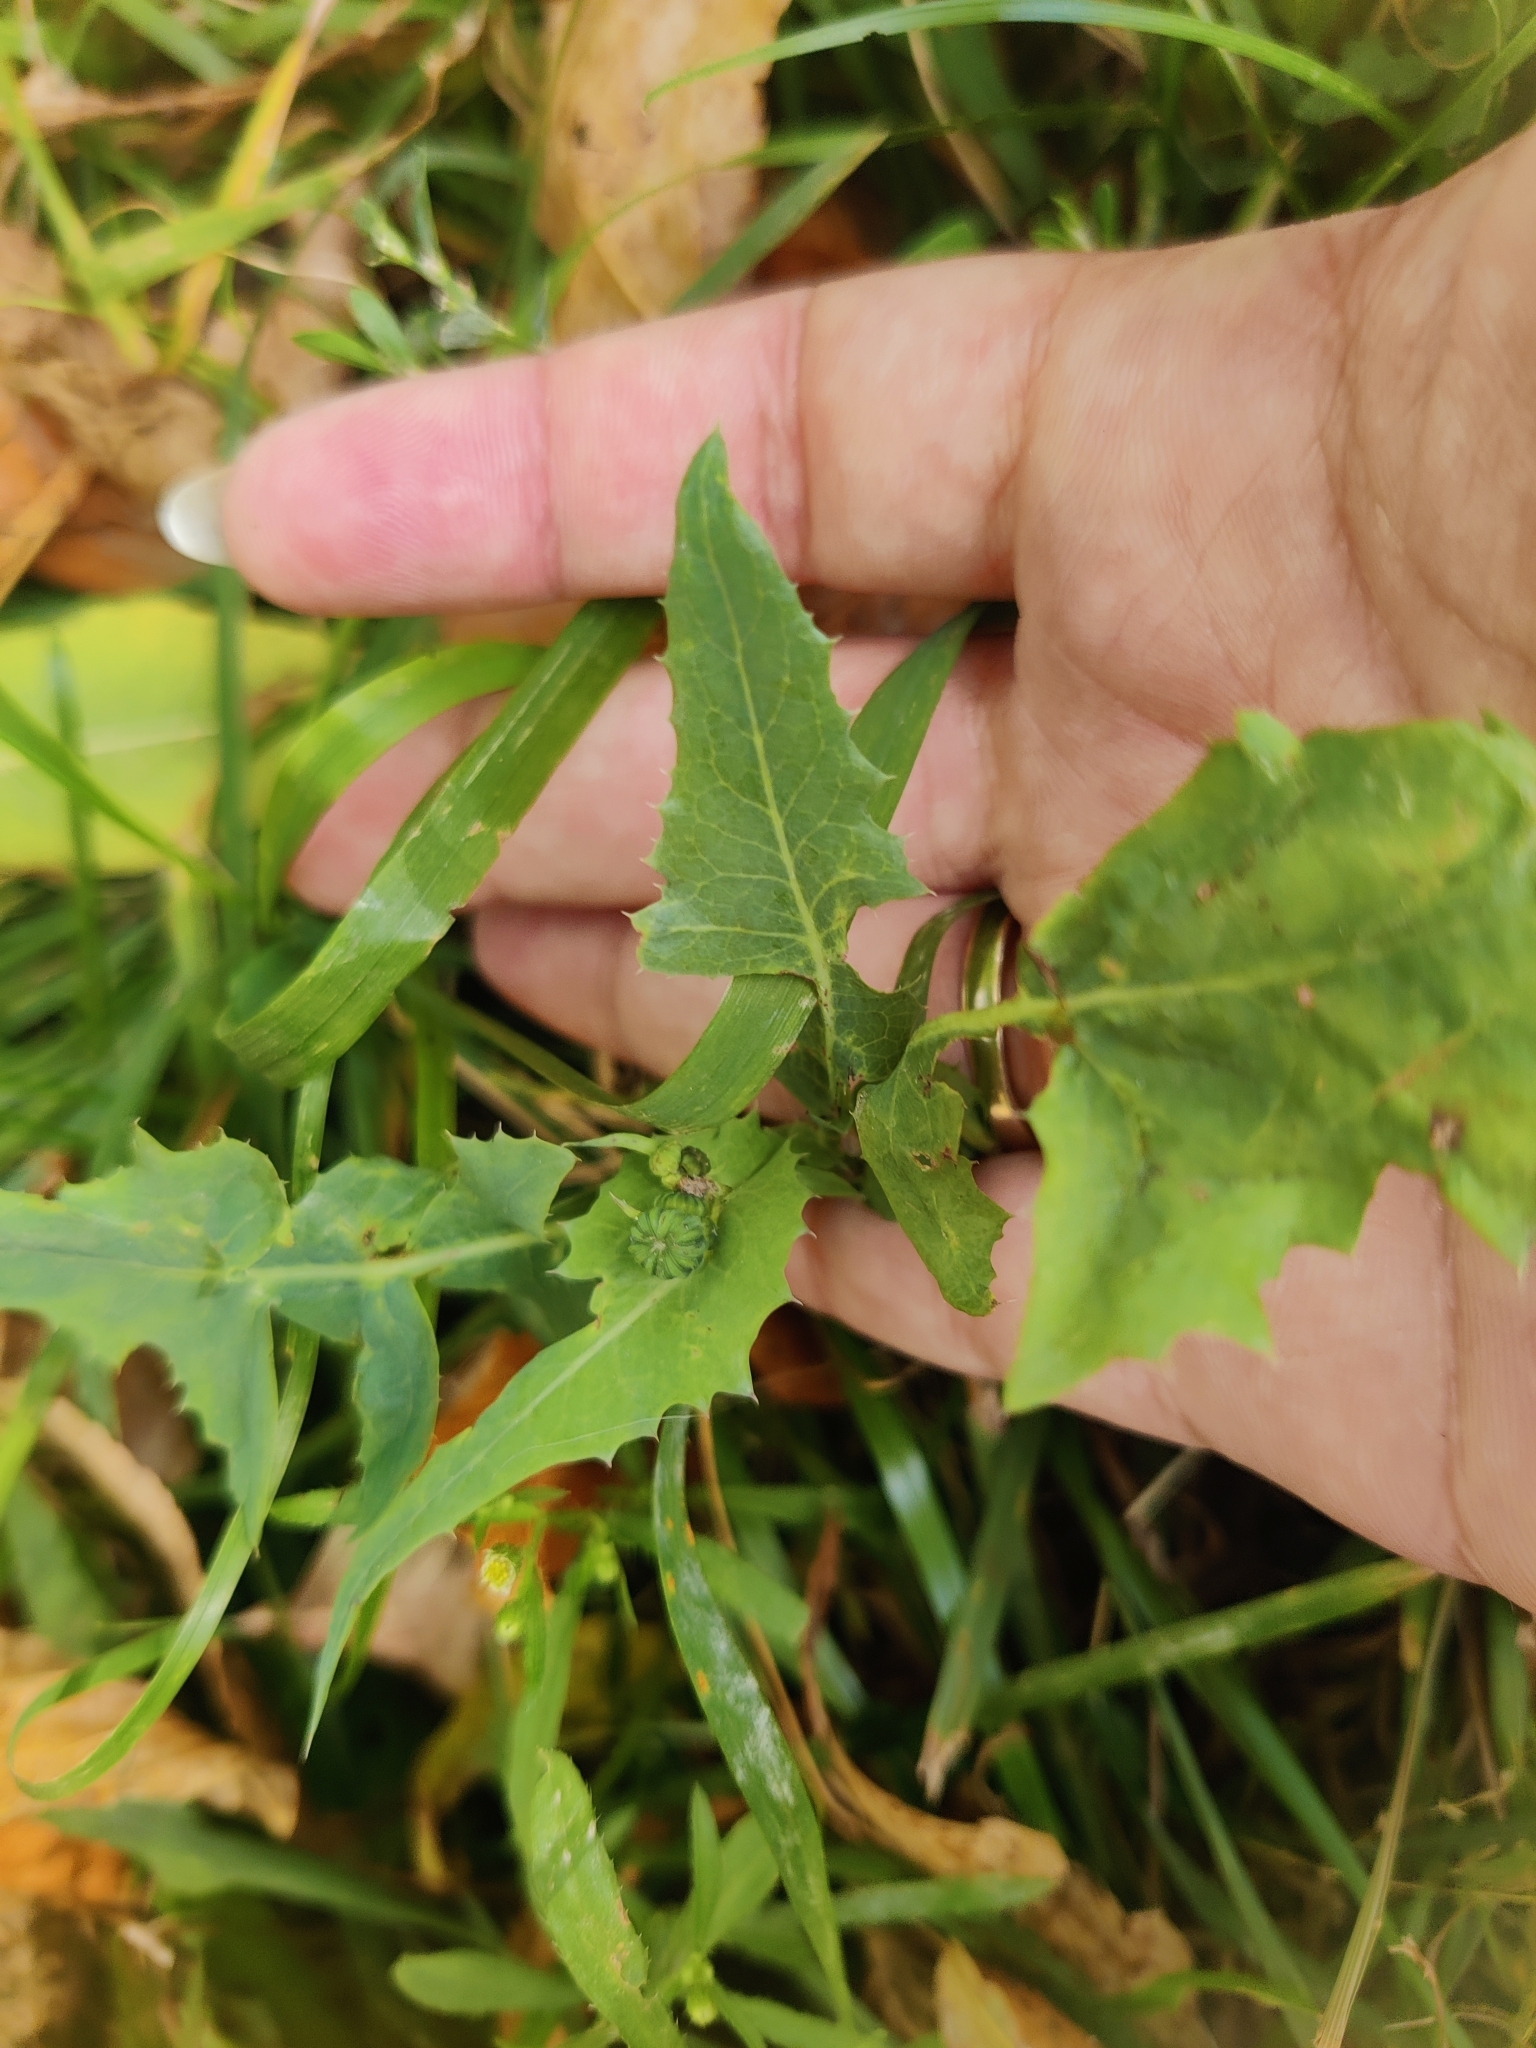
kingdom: Plantae
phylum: Tracheophyta
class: Magnoliopsida
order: Asterales
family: Asteraceae
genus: Sonchus
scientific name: Sonchus oleraceus
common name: Common sowthistle
